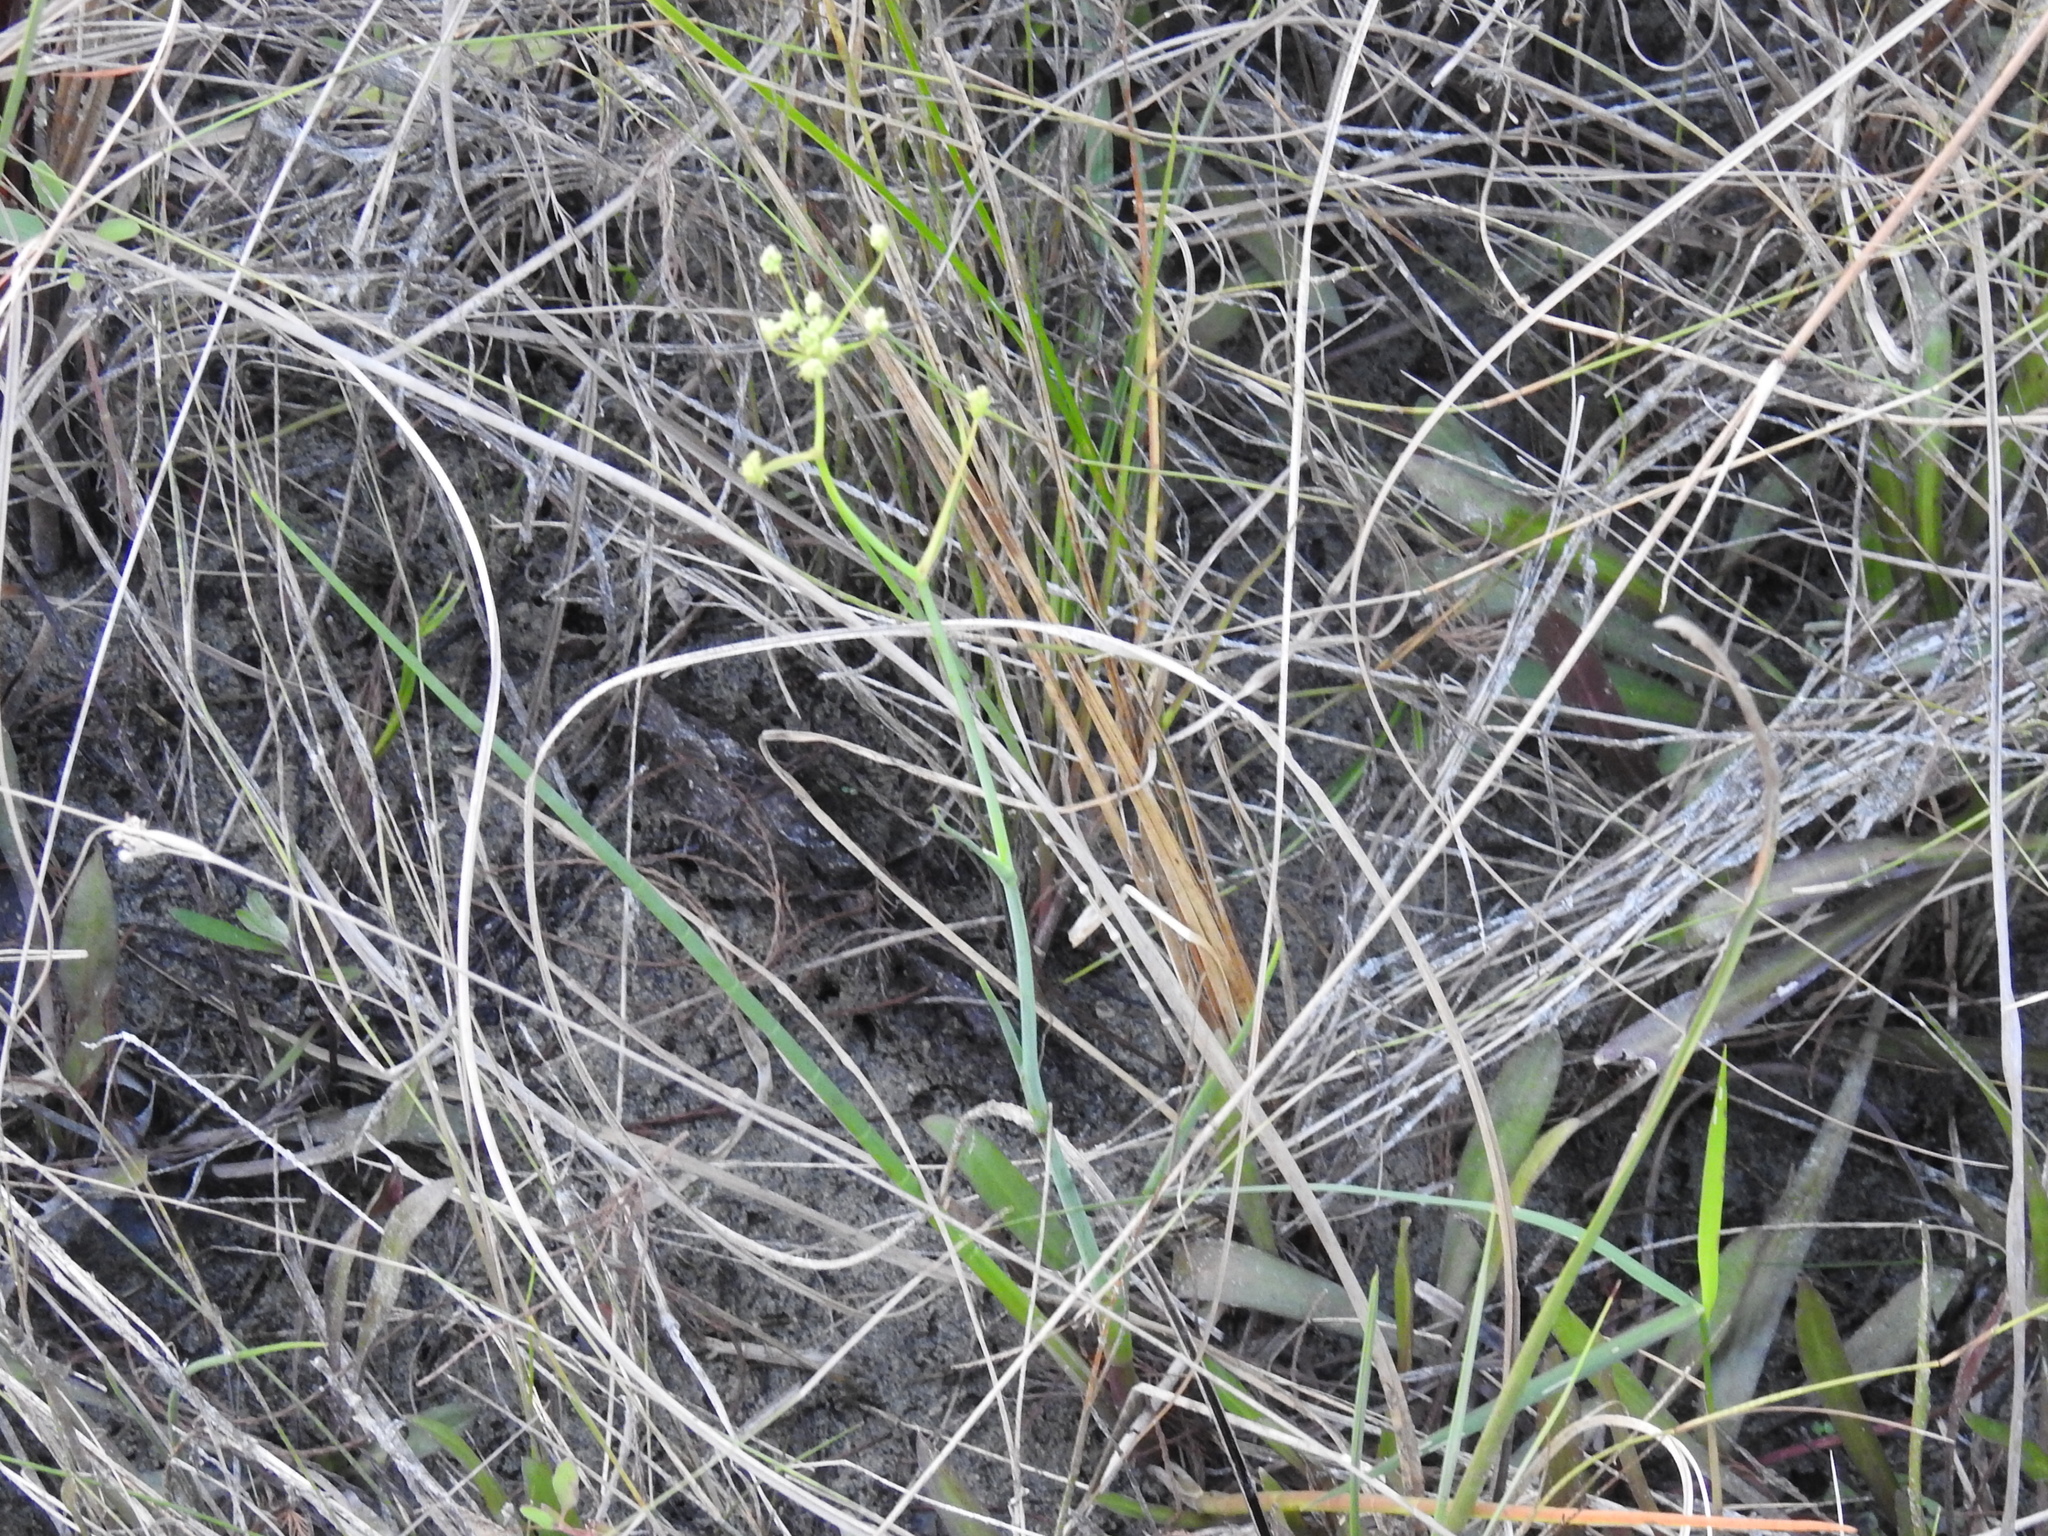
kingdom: Plantae
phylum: Tracheophyta
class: Magnoliopsida
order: Apiales
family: Apiaceae
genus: Tiedemannia
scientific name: Tiedemannia filiformis
